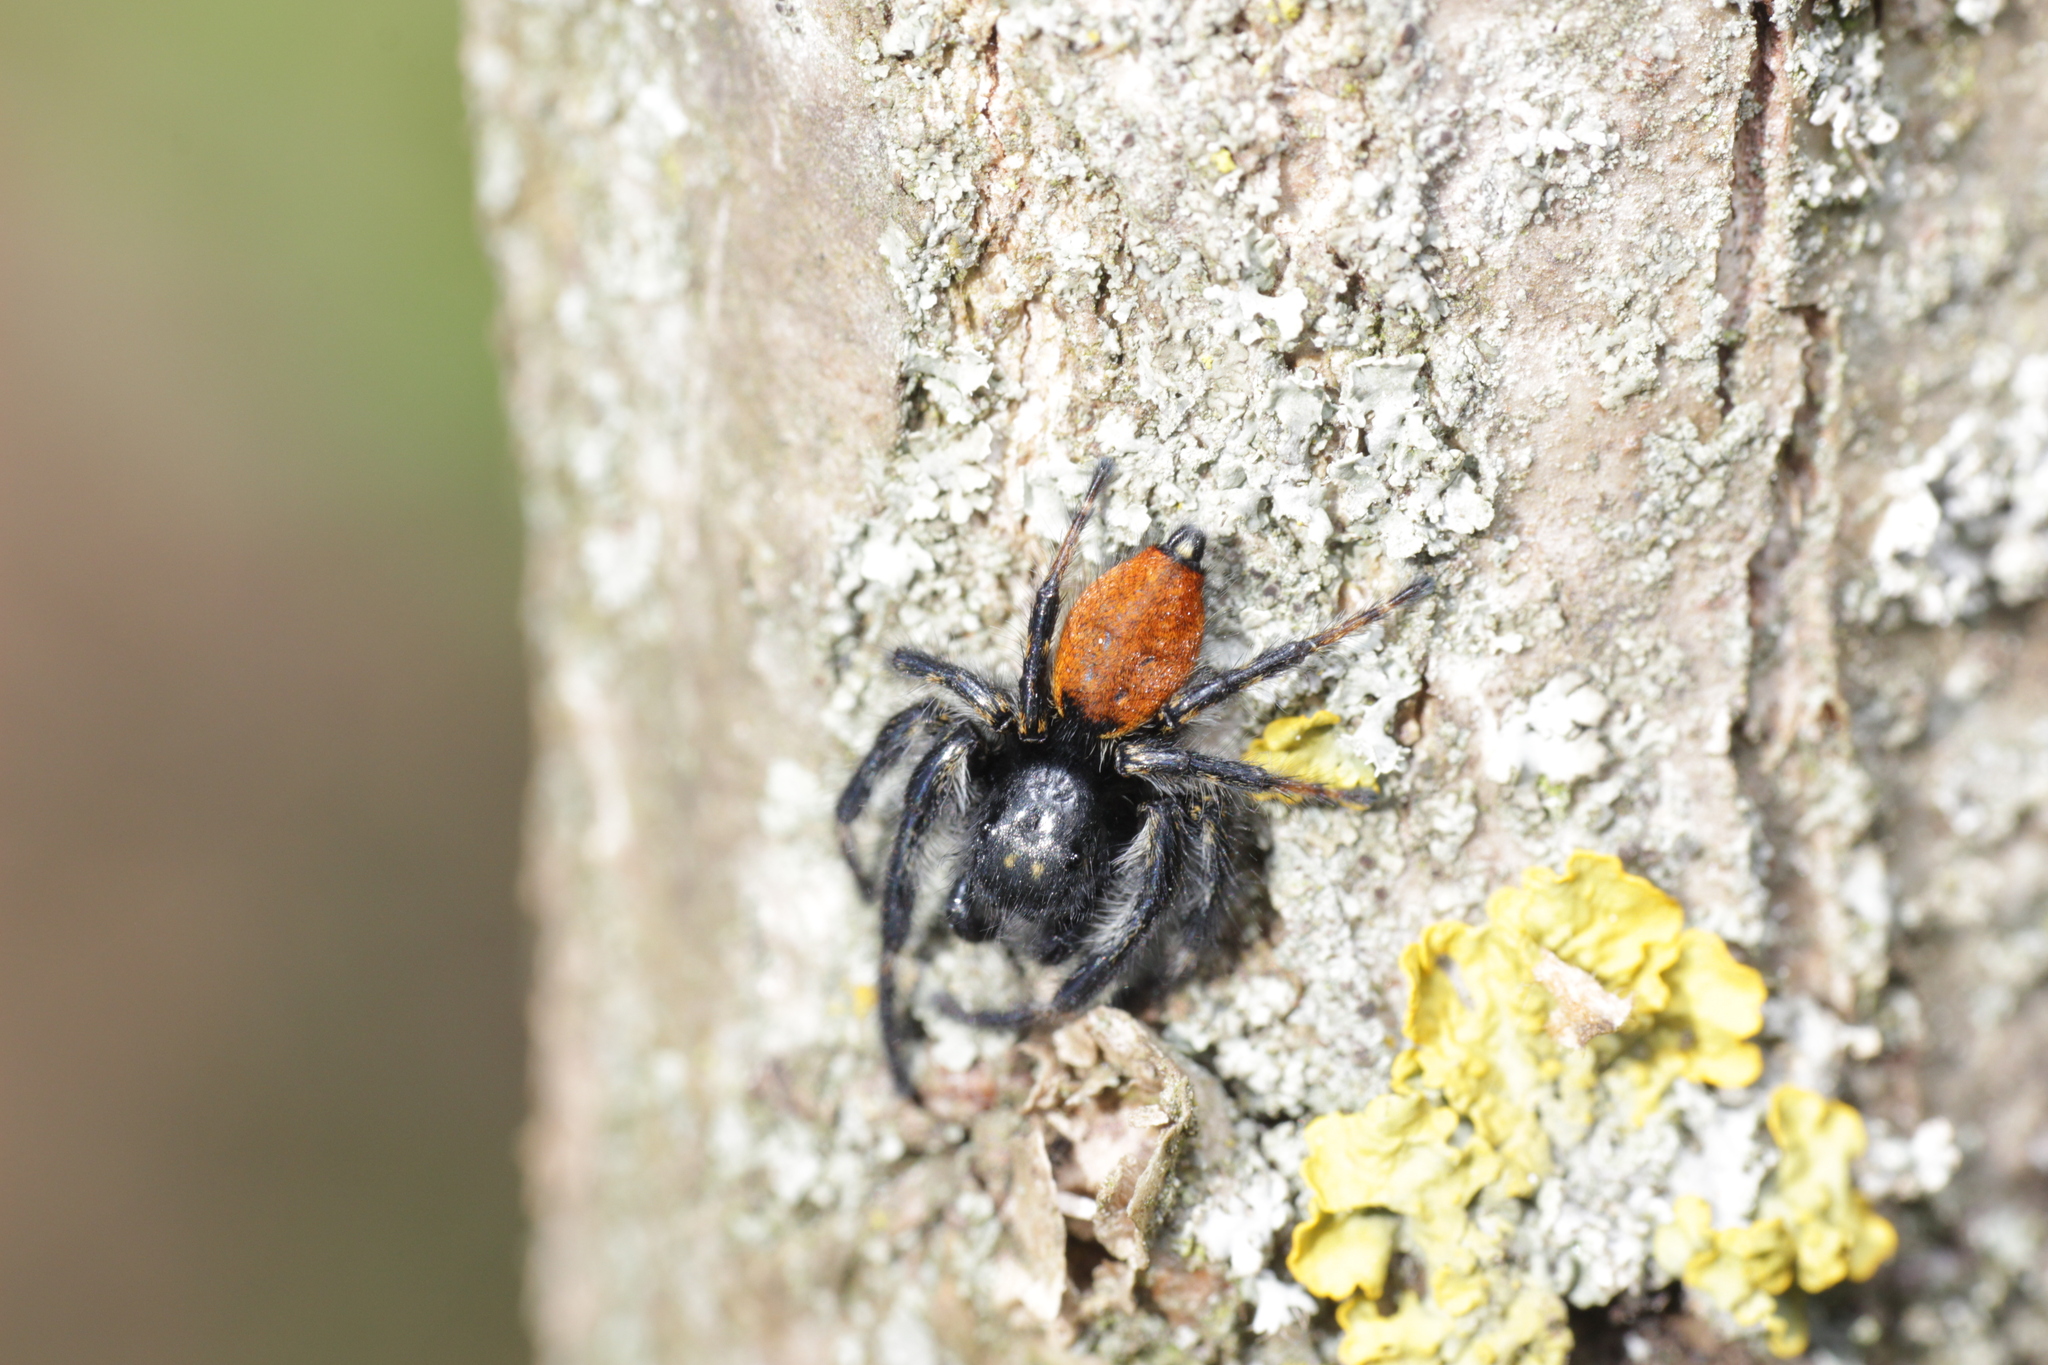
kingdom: Animalia
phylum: Arthropoda
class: Arachnida
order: Araneae
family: Salticidae
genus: Carrhotus
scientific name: Carrhotus xanthogramma
